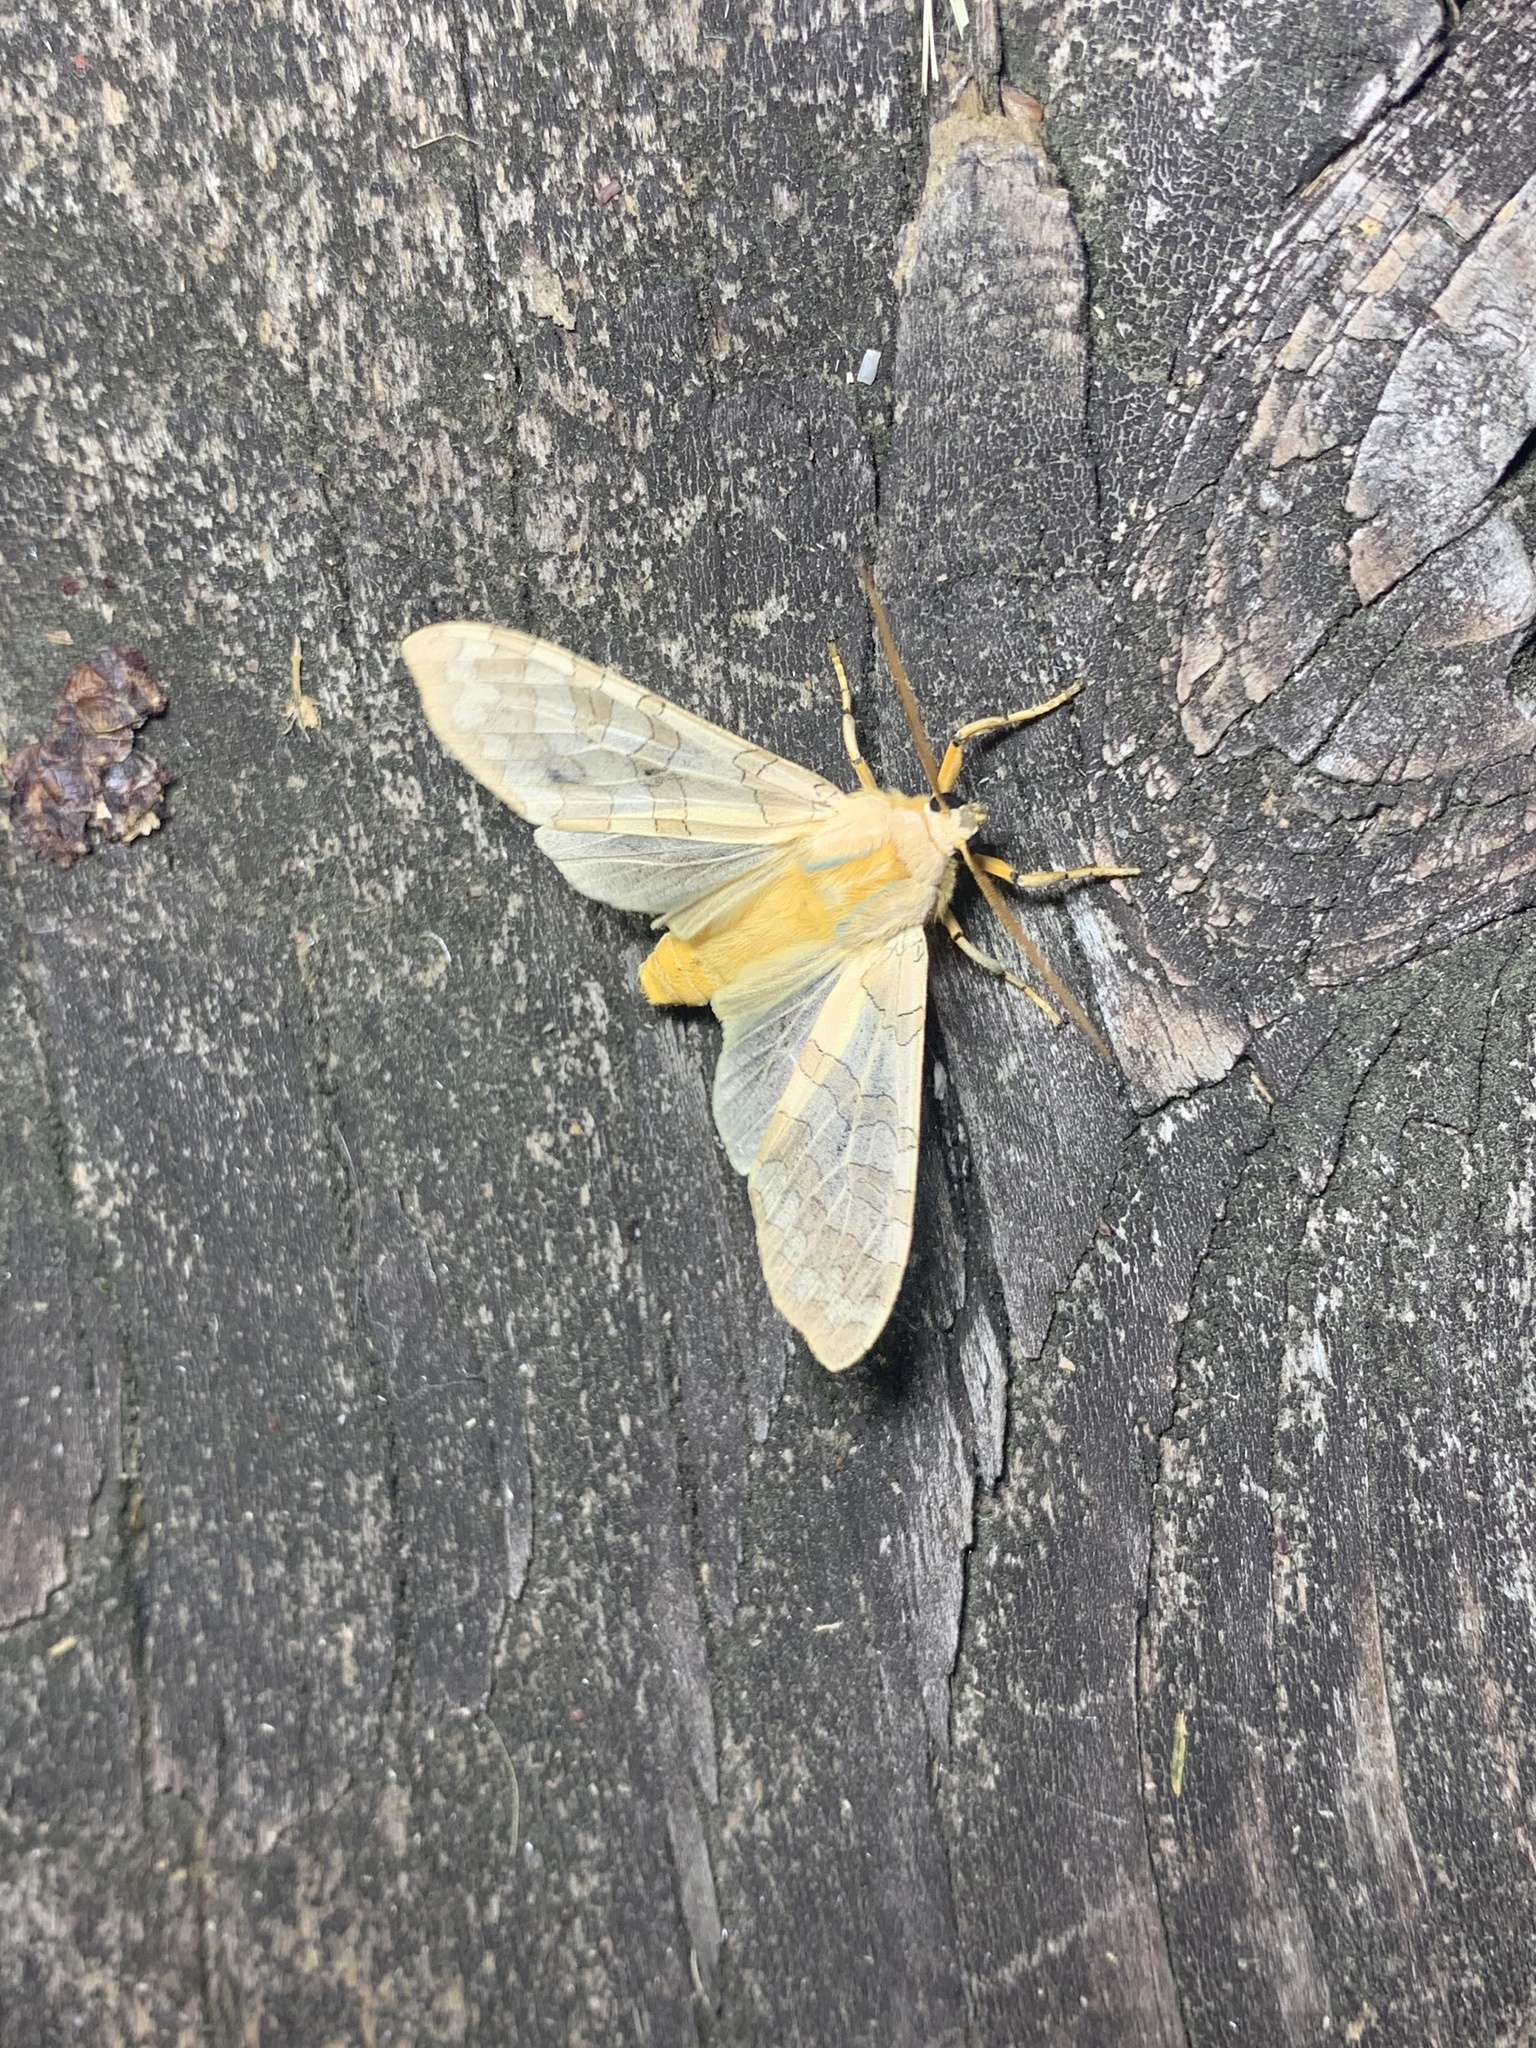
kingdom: Animalia
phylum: Arthropoda
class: Insecta
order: Lepidoptera
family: Erebidae
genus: Halysidota
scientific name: Halysidota
